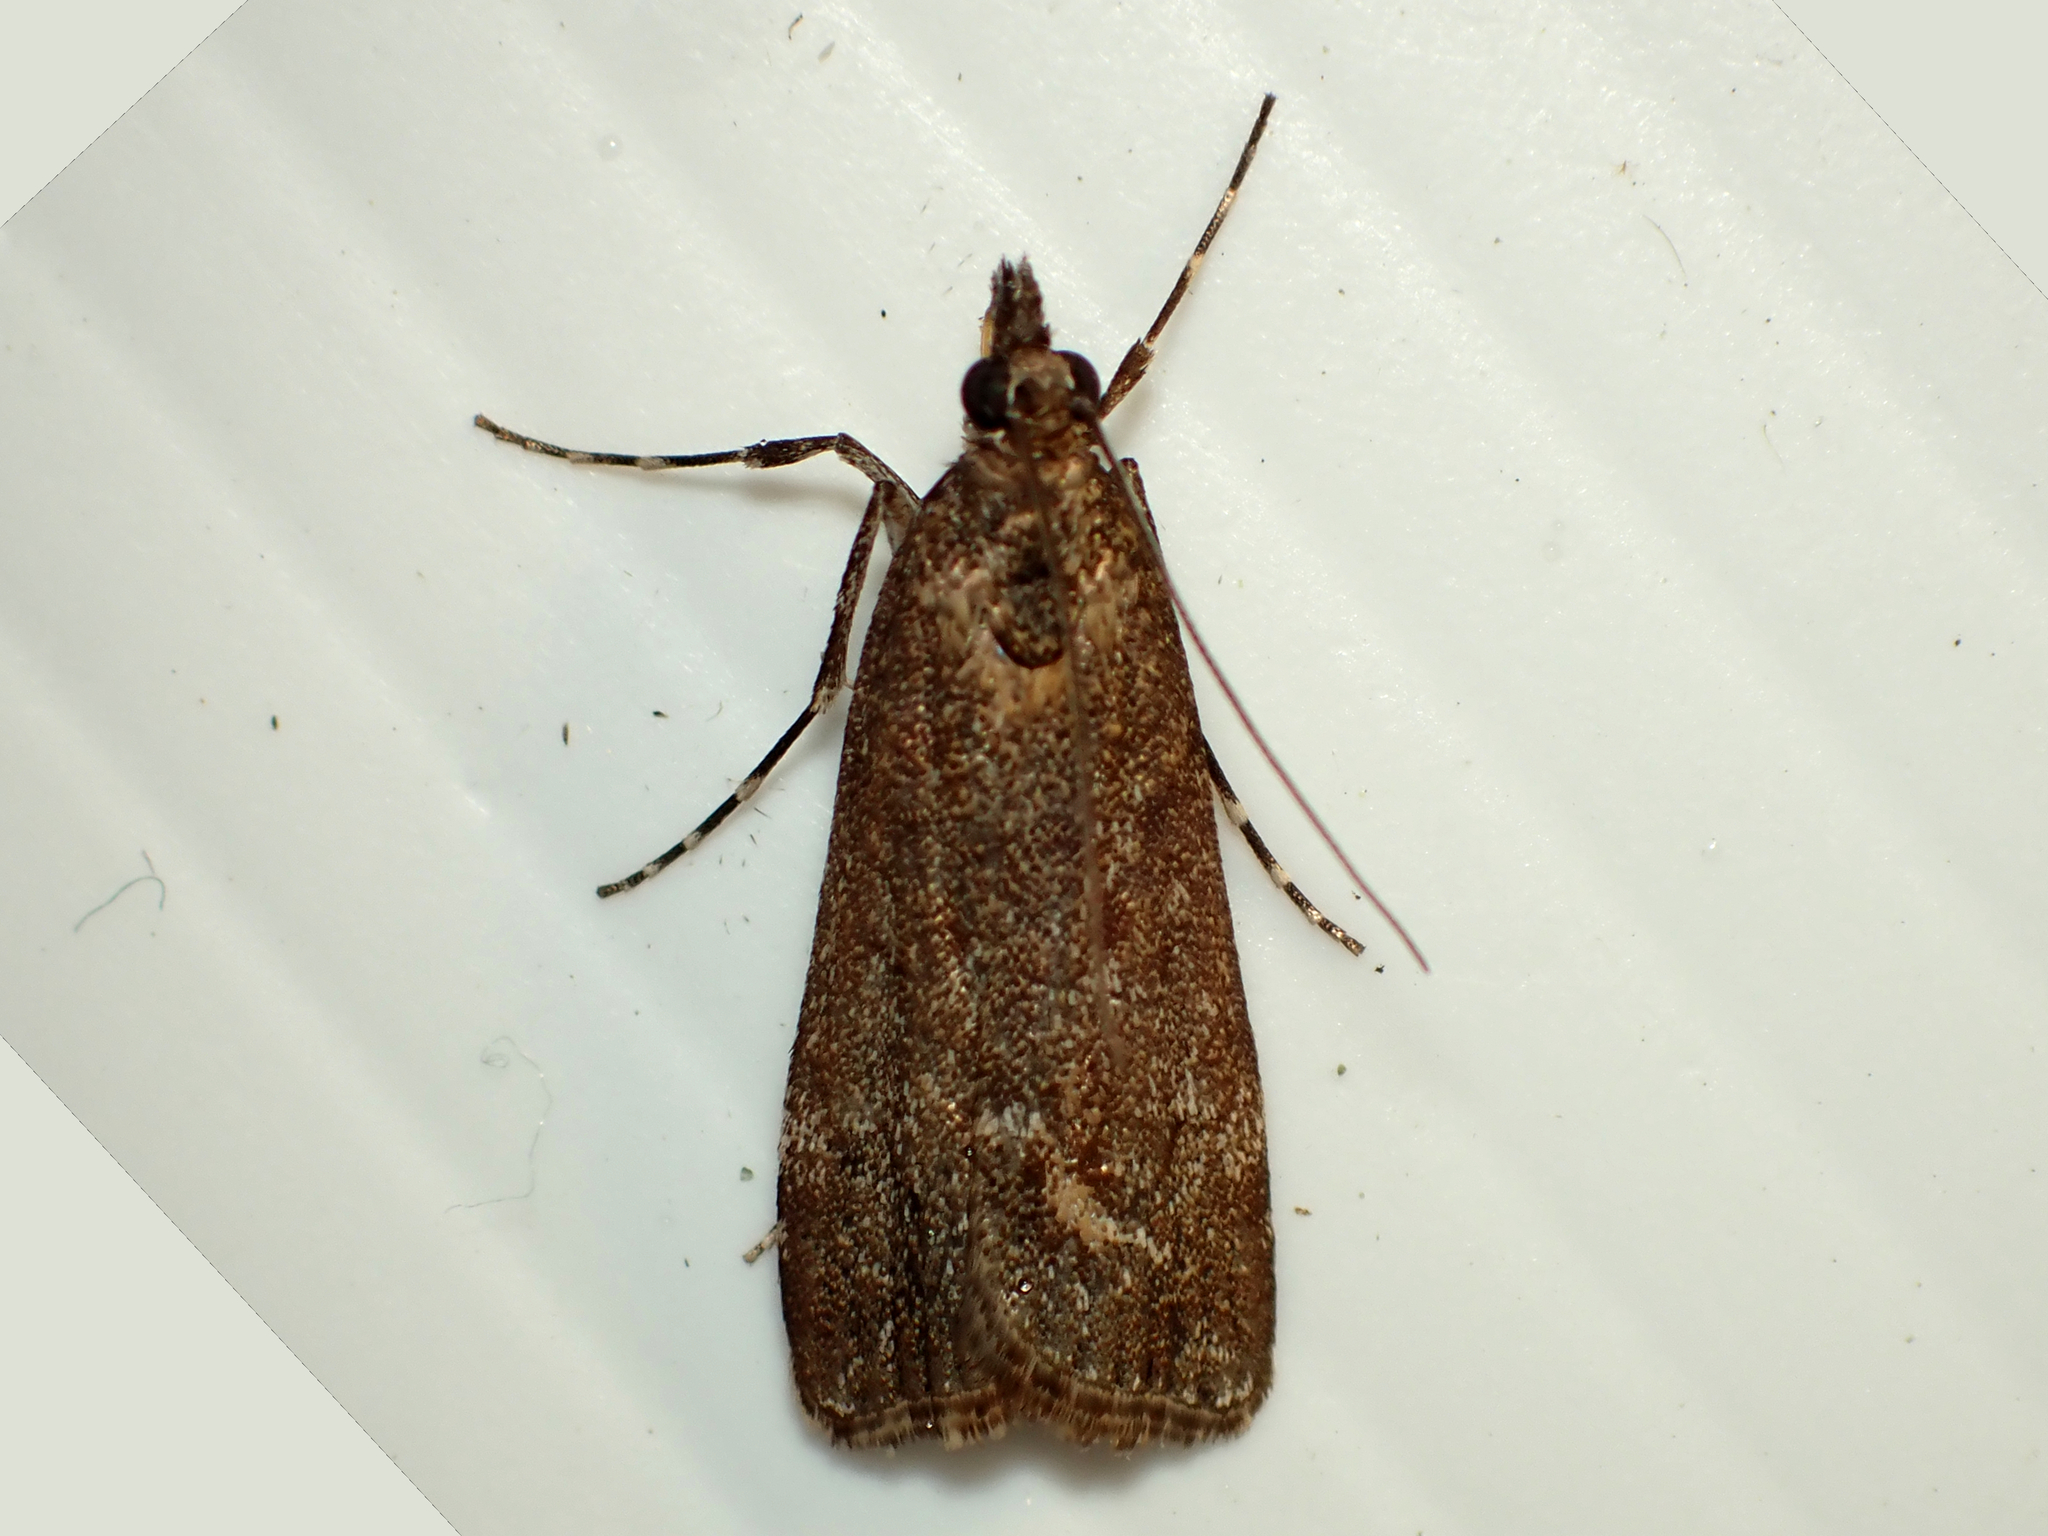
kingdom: Animalia
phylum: Arthropoda
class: Insecta
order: Lepidoptera
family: Crambidae
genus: Eudonia
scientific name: Eudonia submarginalis
